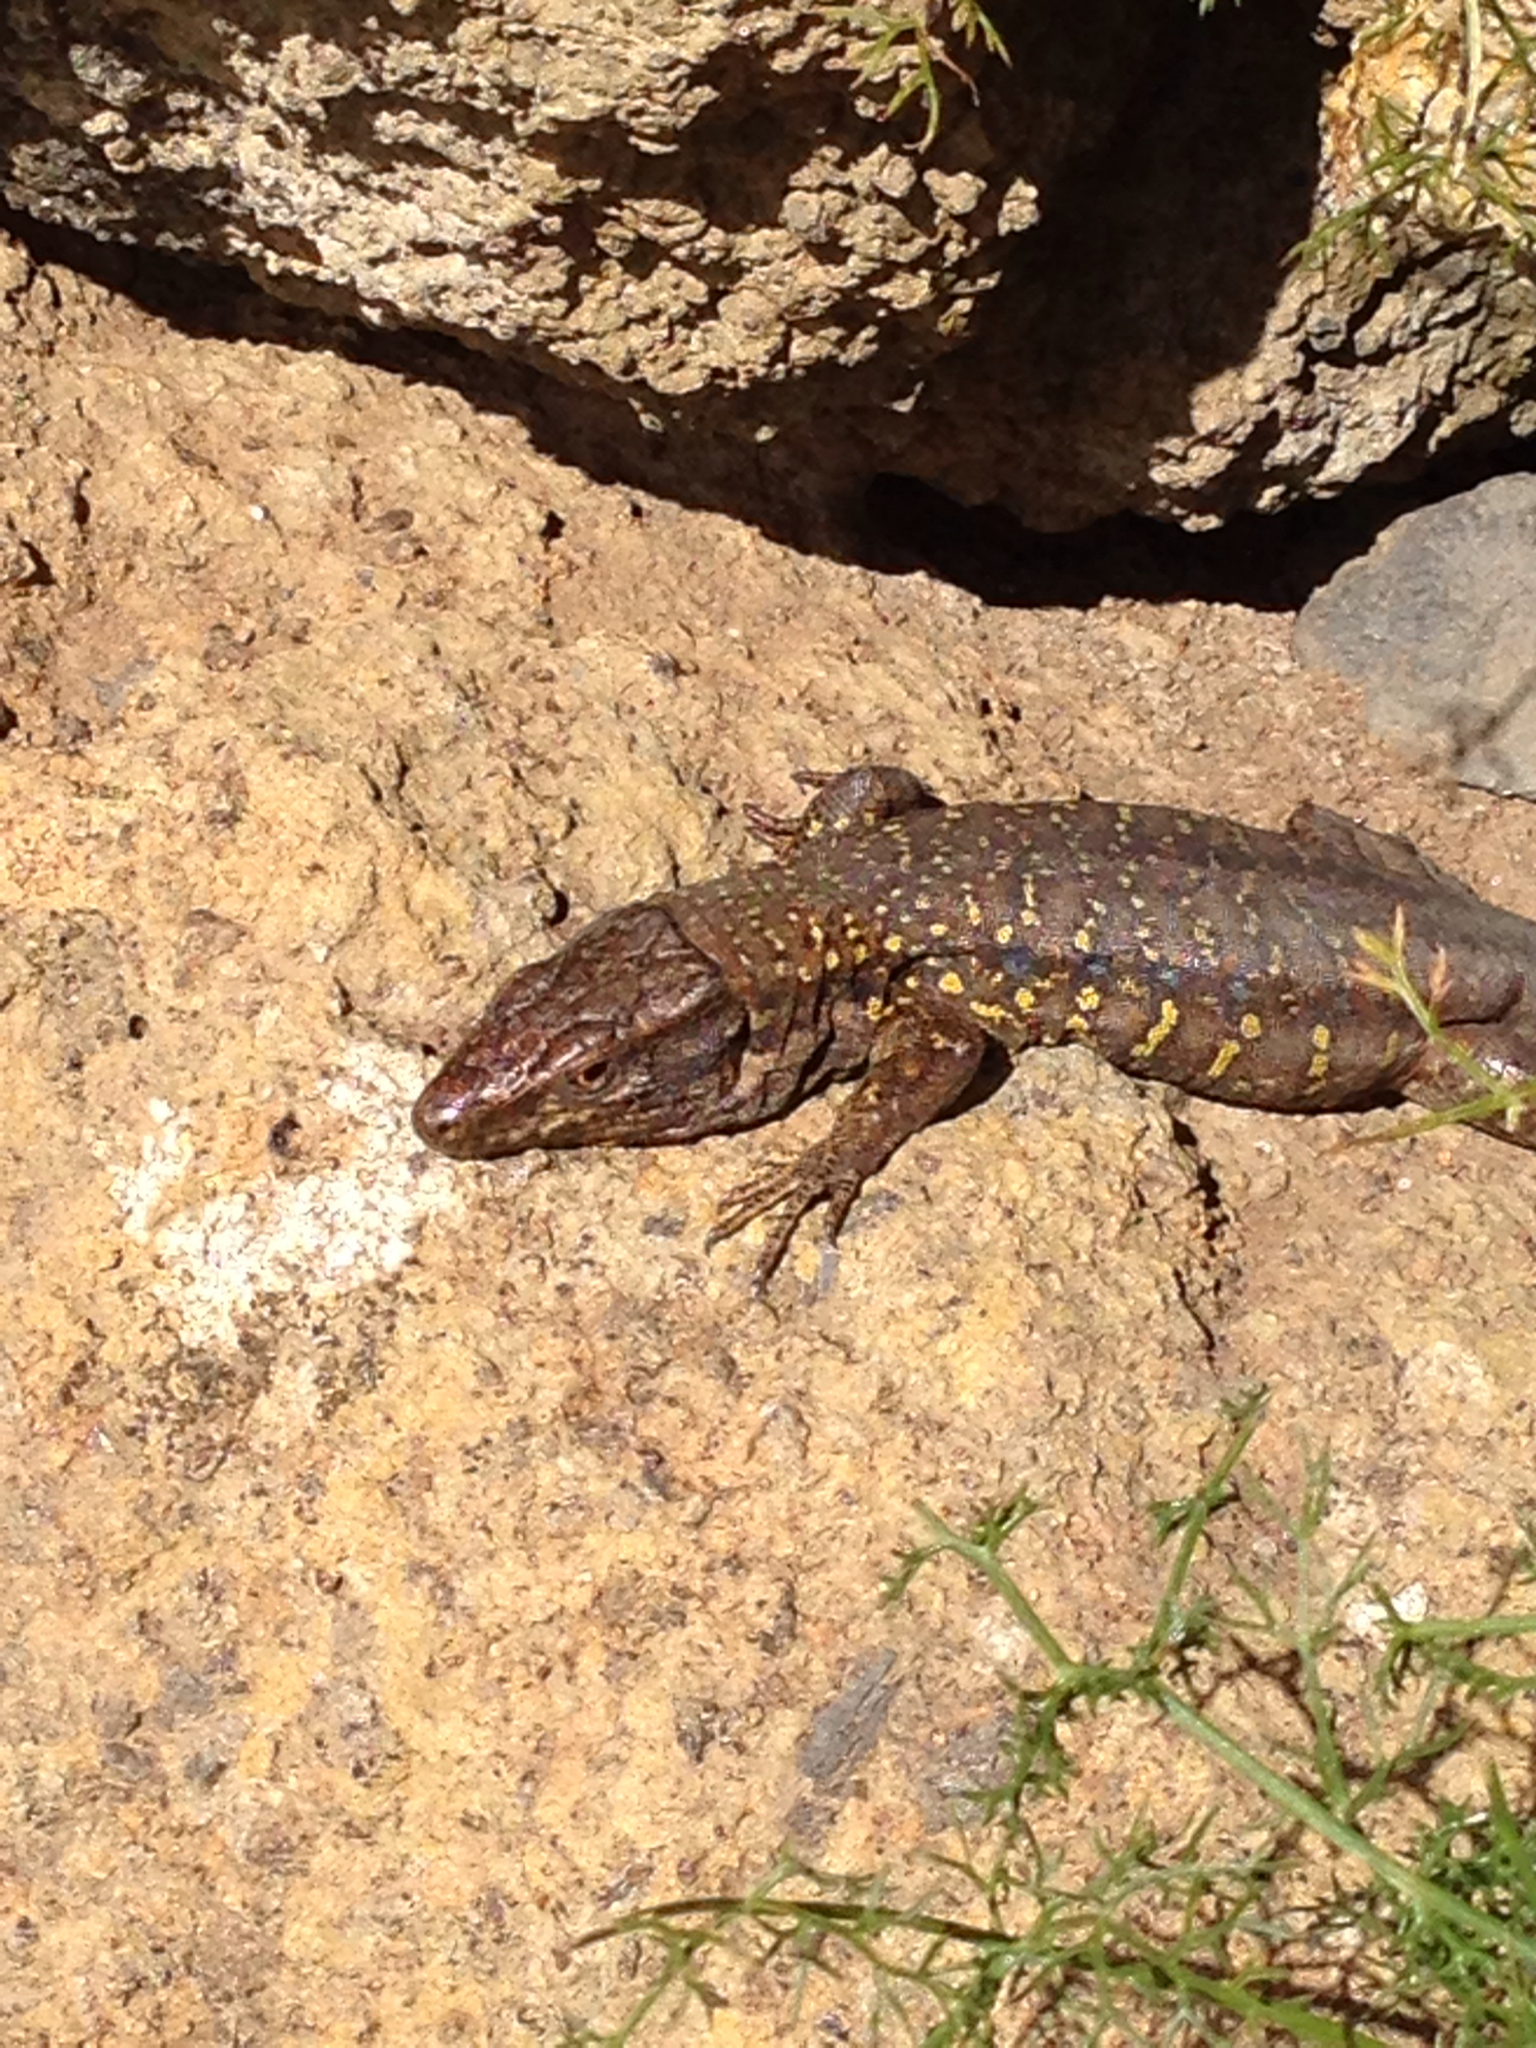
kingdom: Animalia
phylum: Chordata
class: Squamata
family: Lacertidae
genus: Gallotia
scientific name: Gallotia galloti
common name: Gallot's lizard
